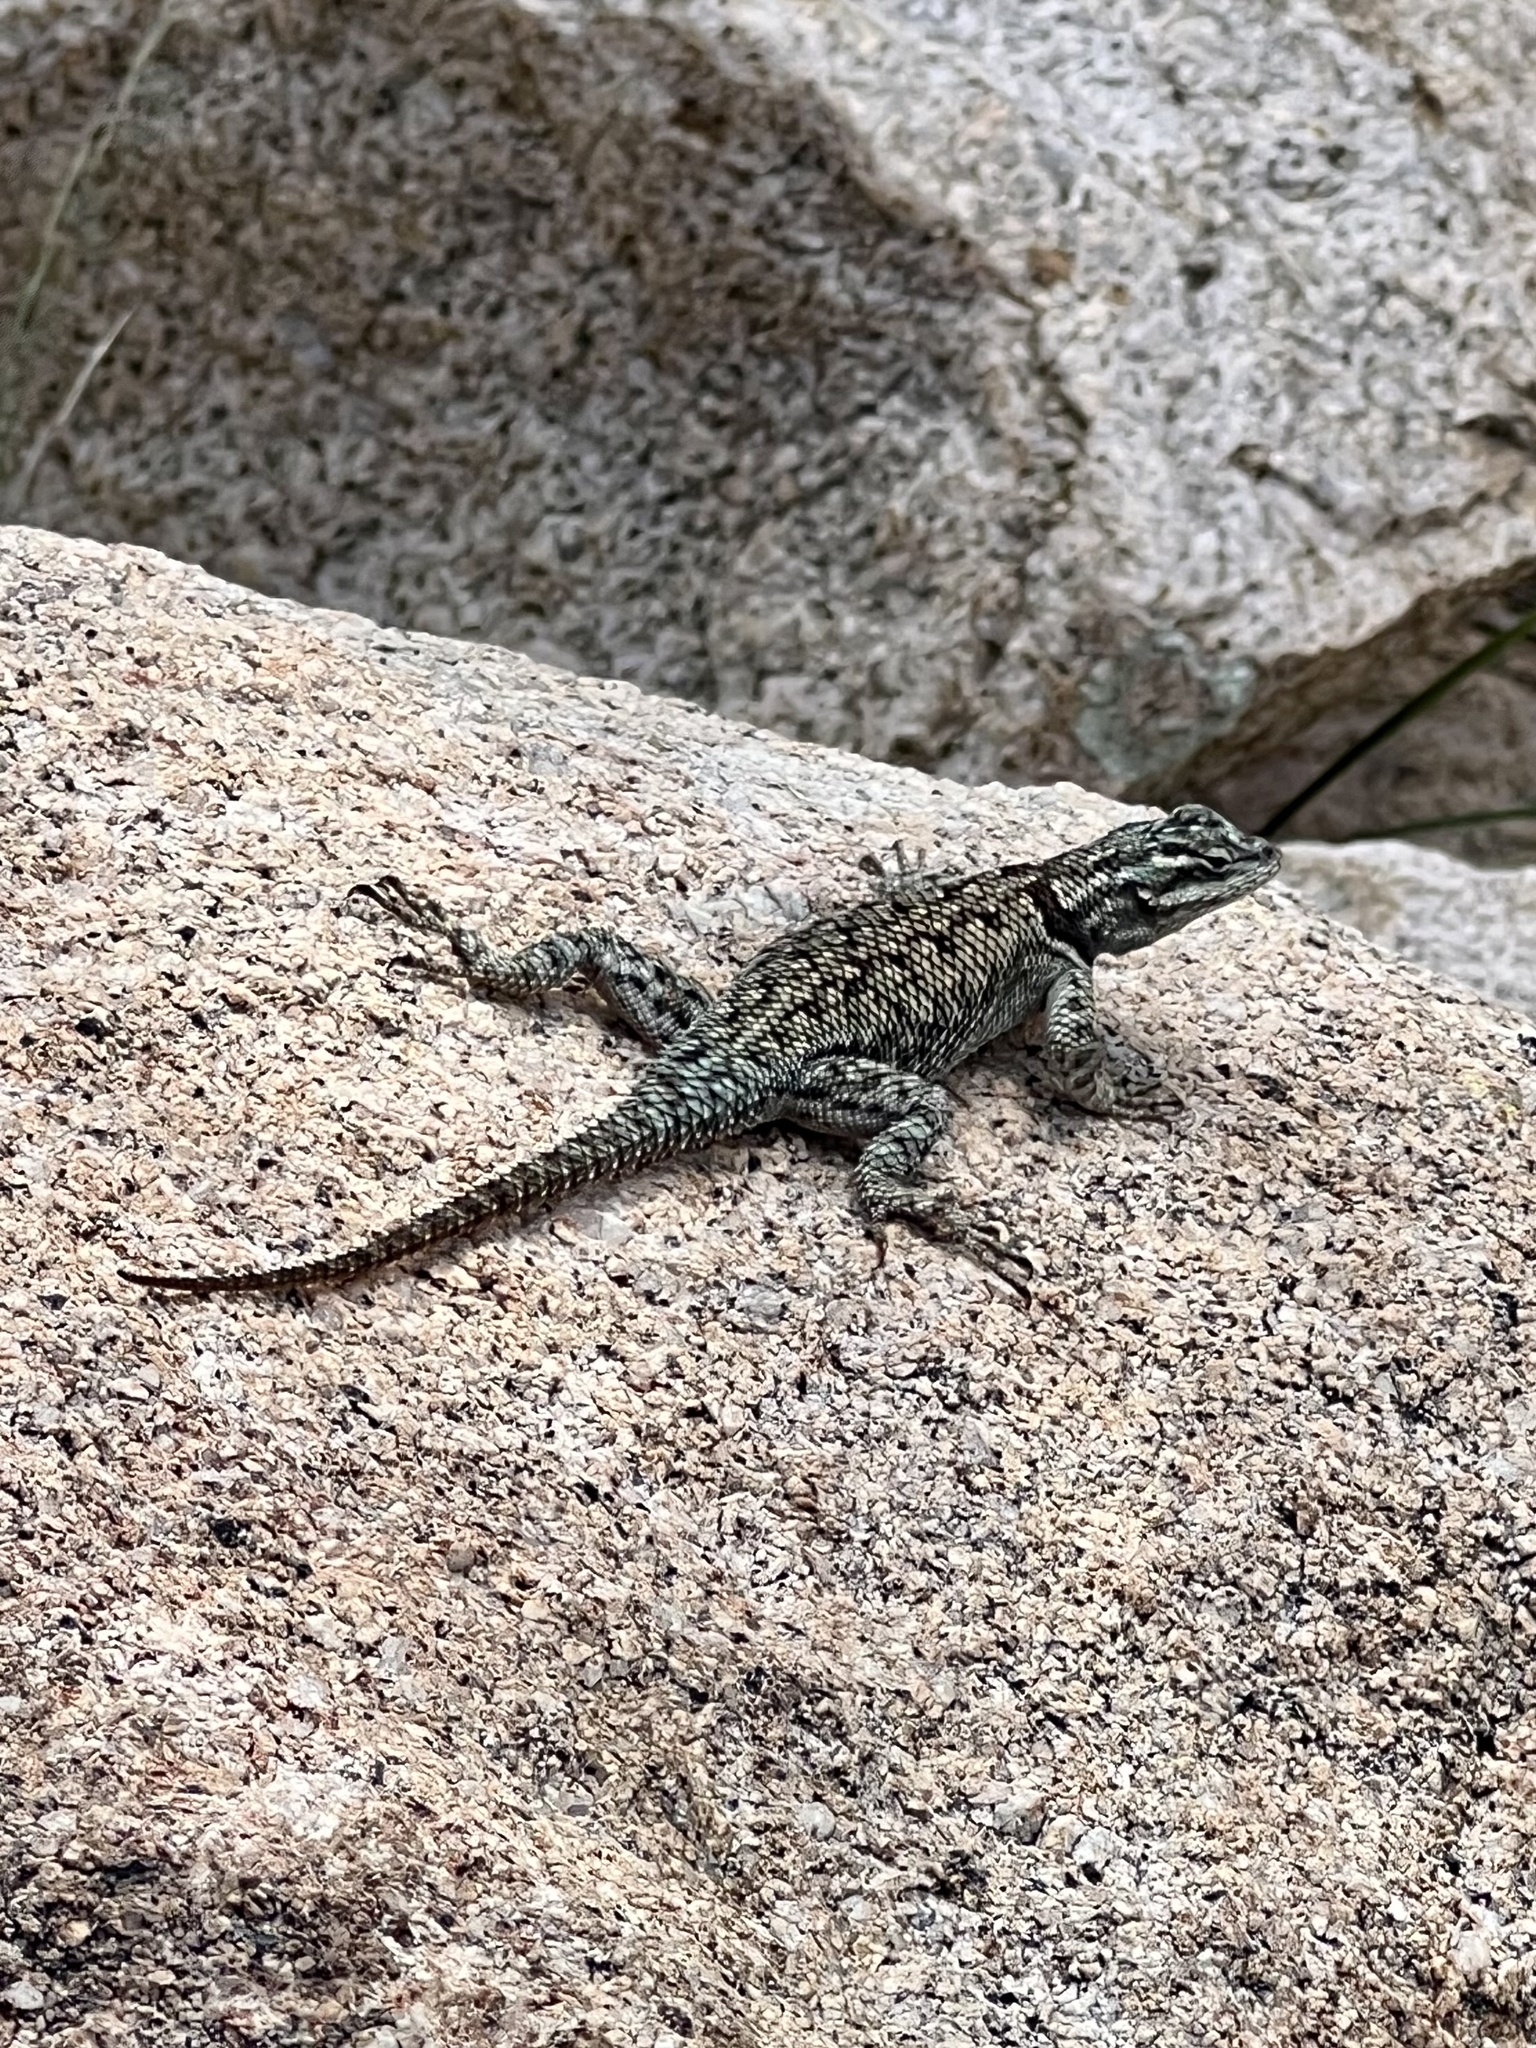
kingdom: Animalia
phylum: Chordata
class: Squamata
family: Phrynosomatidae
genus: Sceloporus
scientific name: Sceloporus jarrovii
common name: Yarrow's spiny lizard
